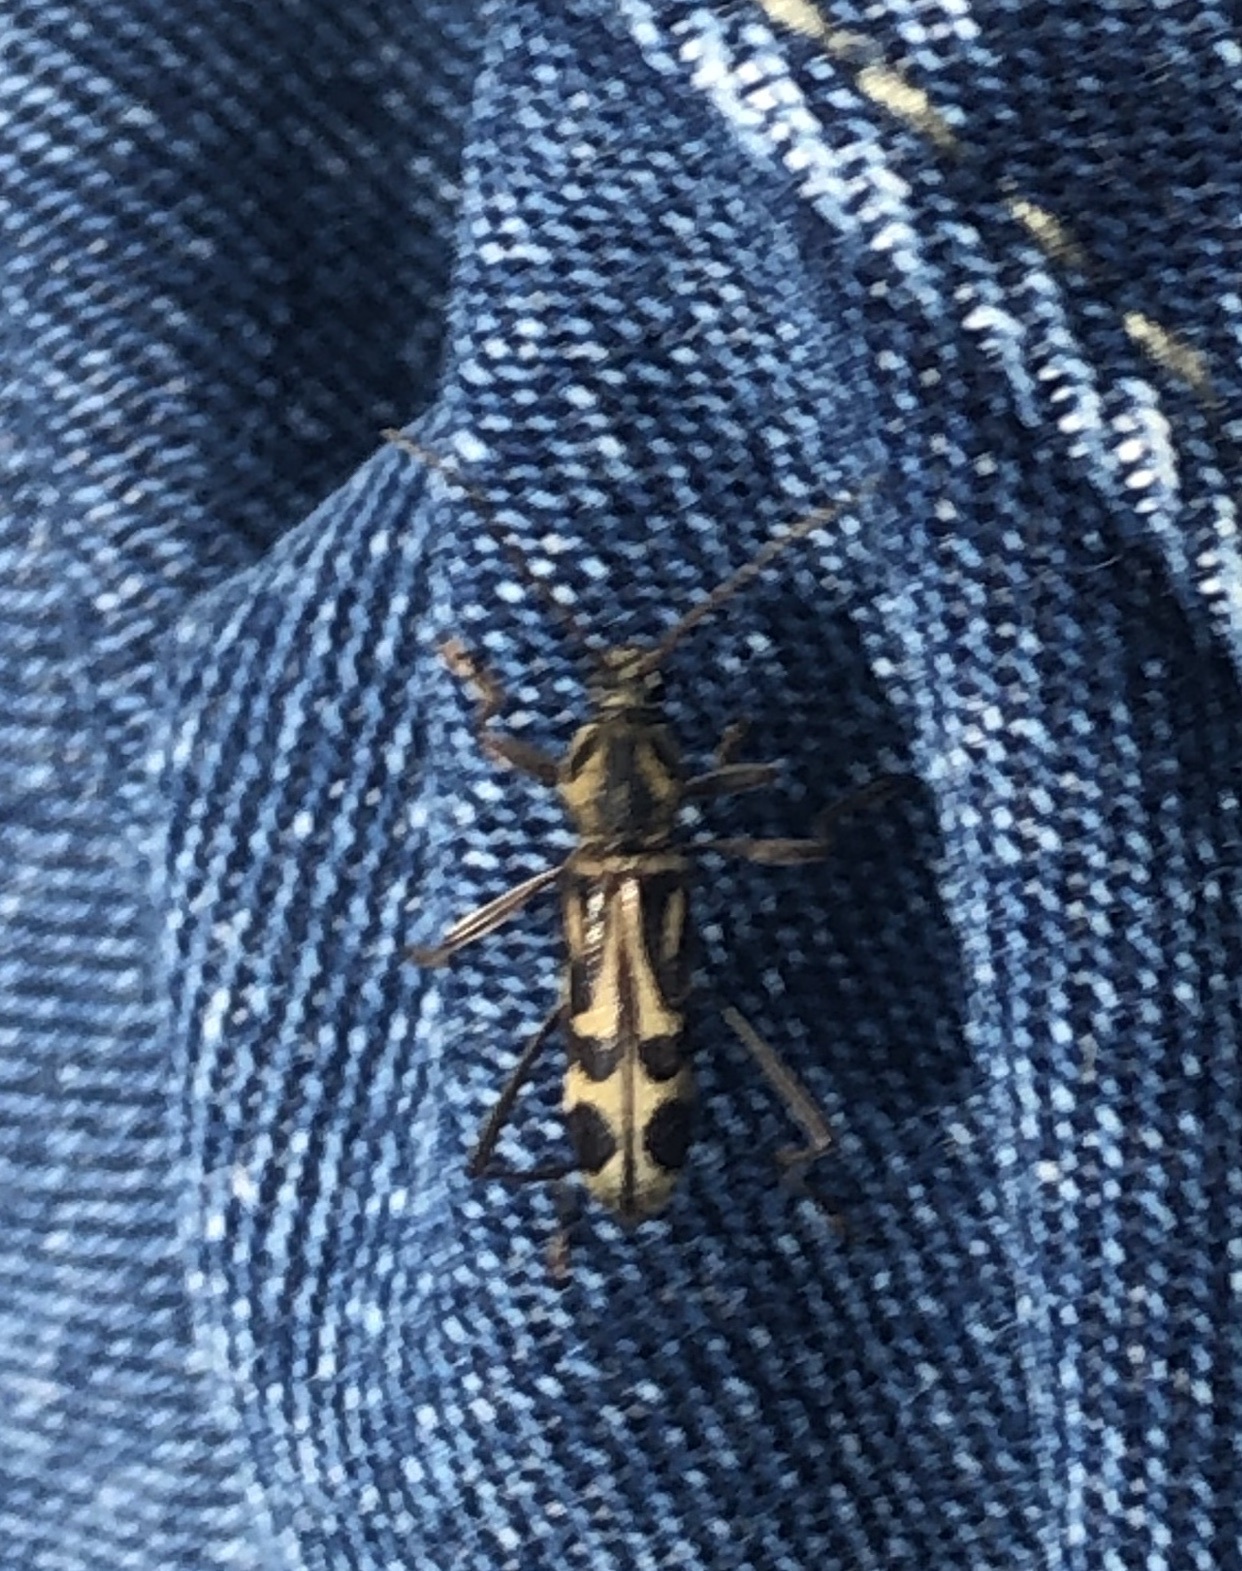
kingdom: Animalia
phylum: Arthropoda
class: Insecta
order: Coleoptera
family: Cerambycidae
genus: Chlorophorus
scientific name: Chlorophorus annularis
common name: Bamboo longhorn beetle
